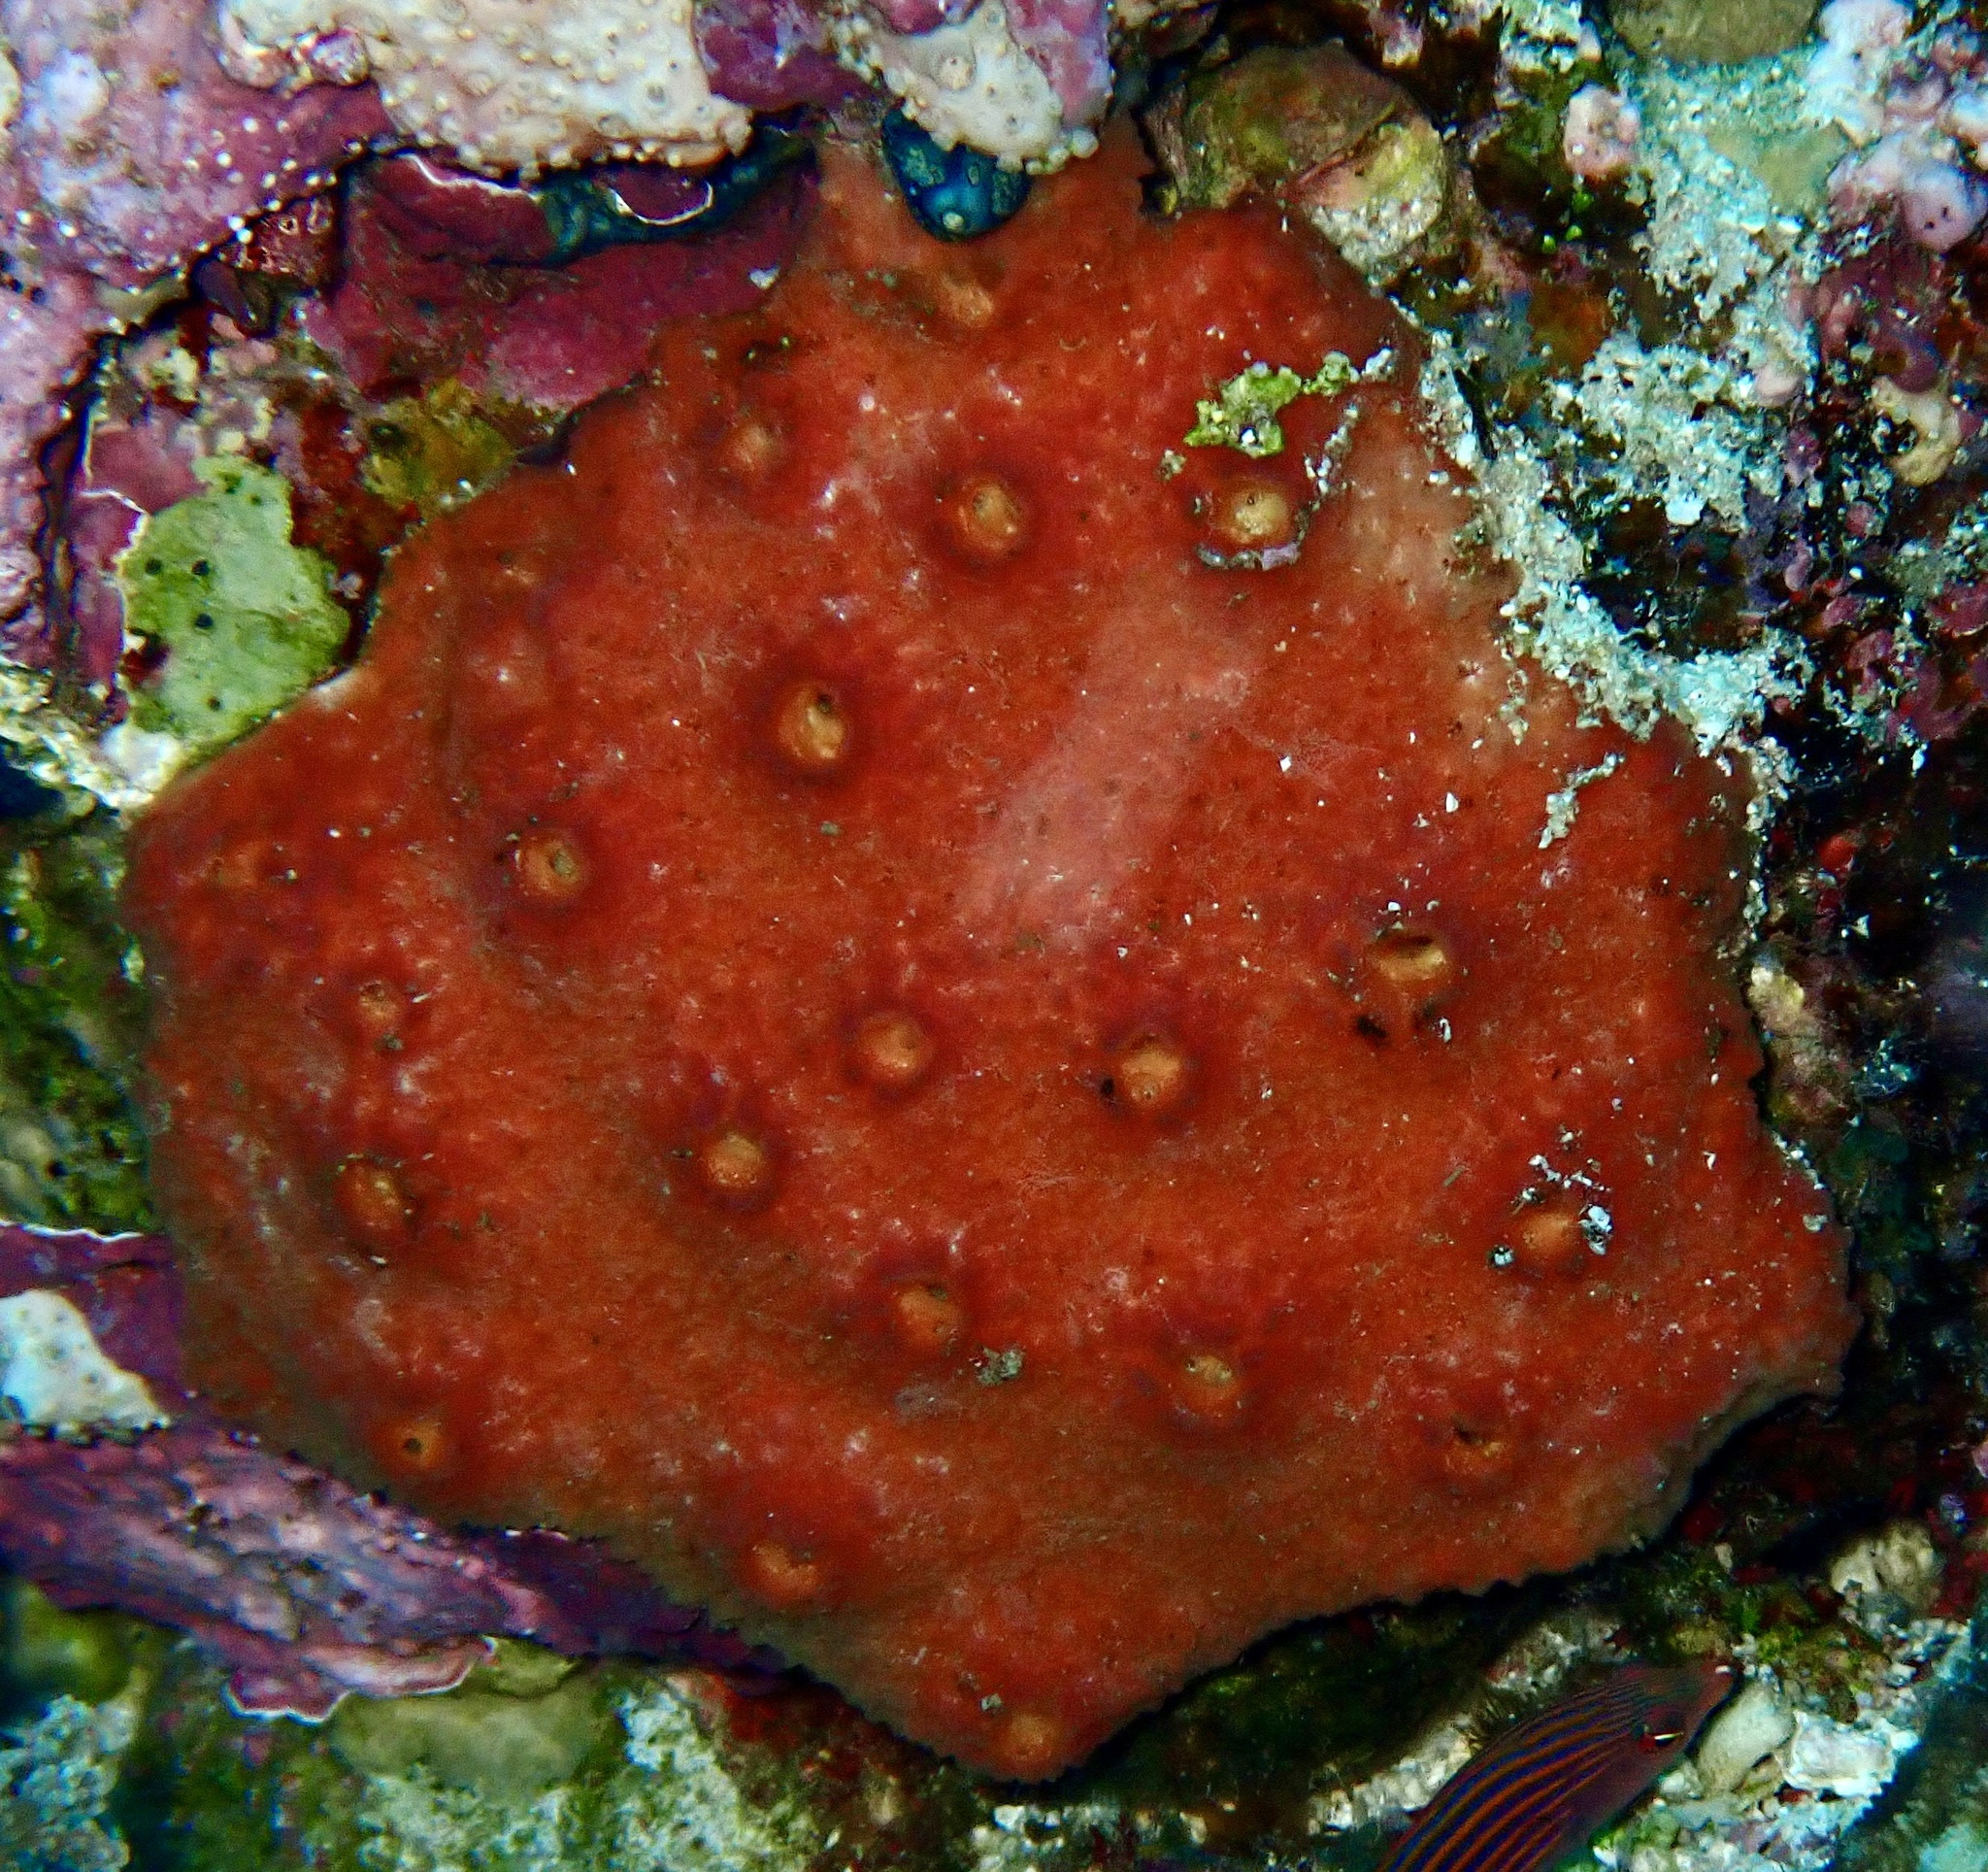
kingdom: Animalia
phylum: Porifera
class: Demospongiae
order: Poecilosclerida
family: Mycalidae
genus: Mycale
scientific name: Mycale euplectellioides
